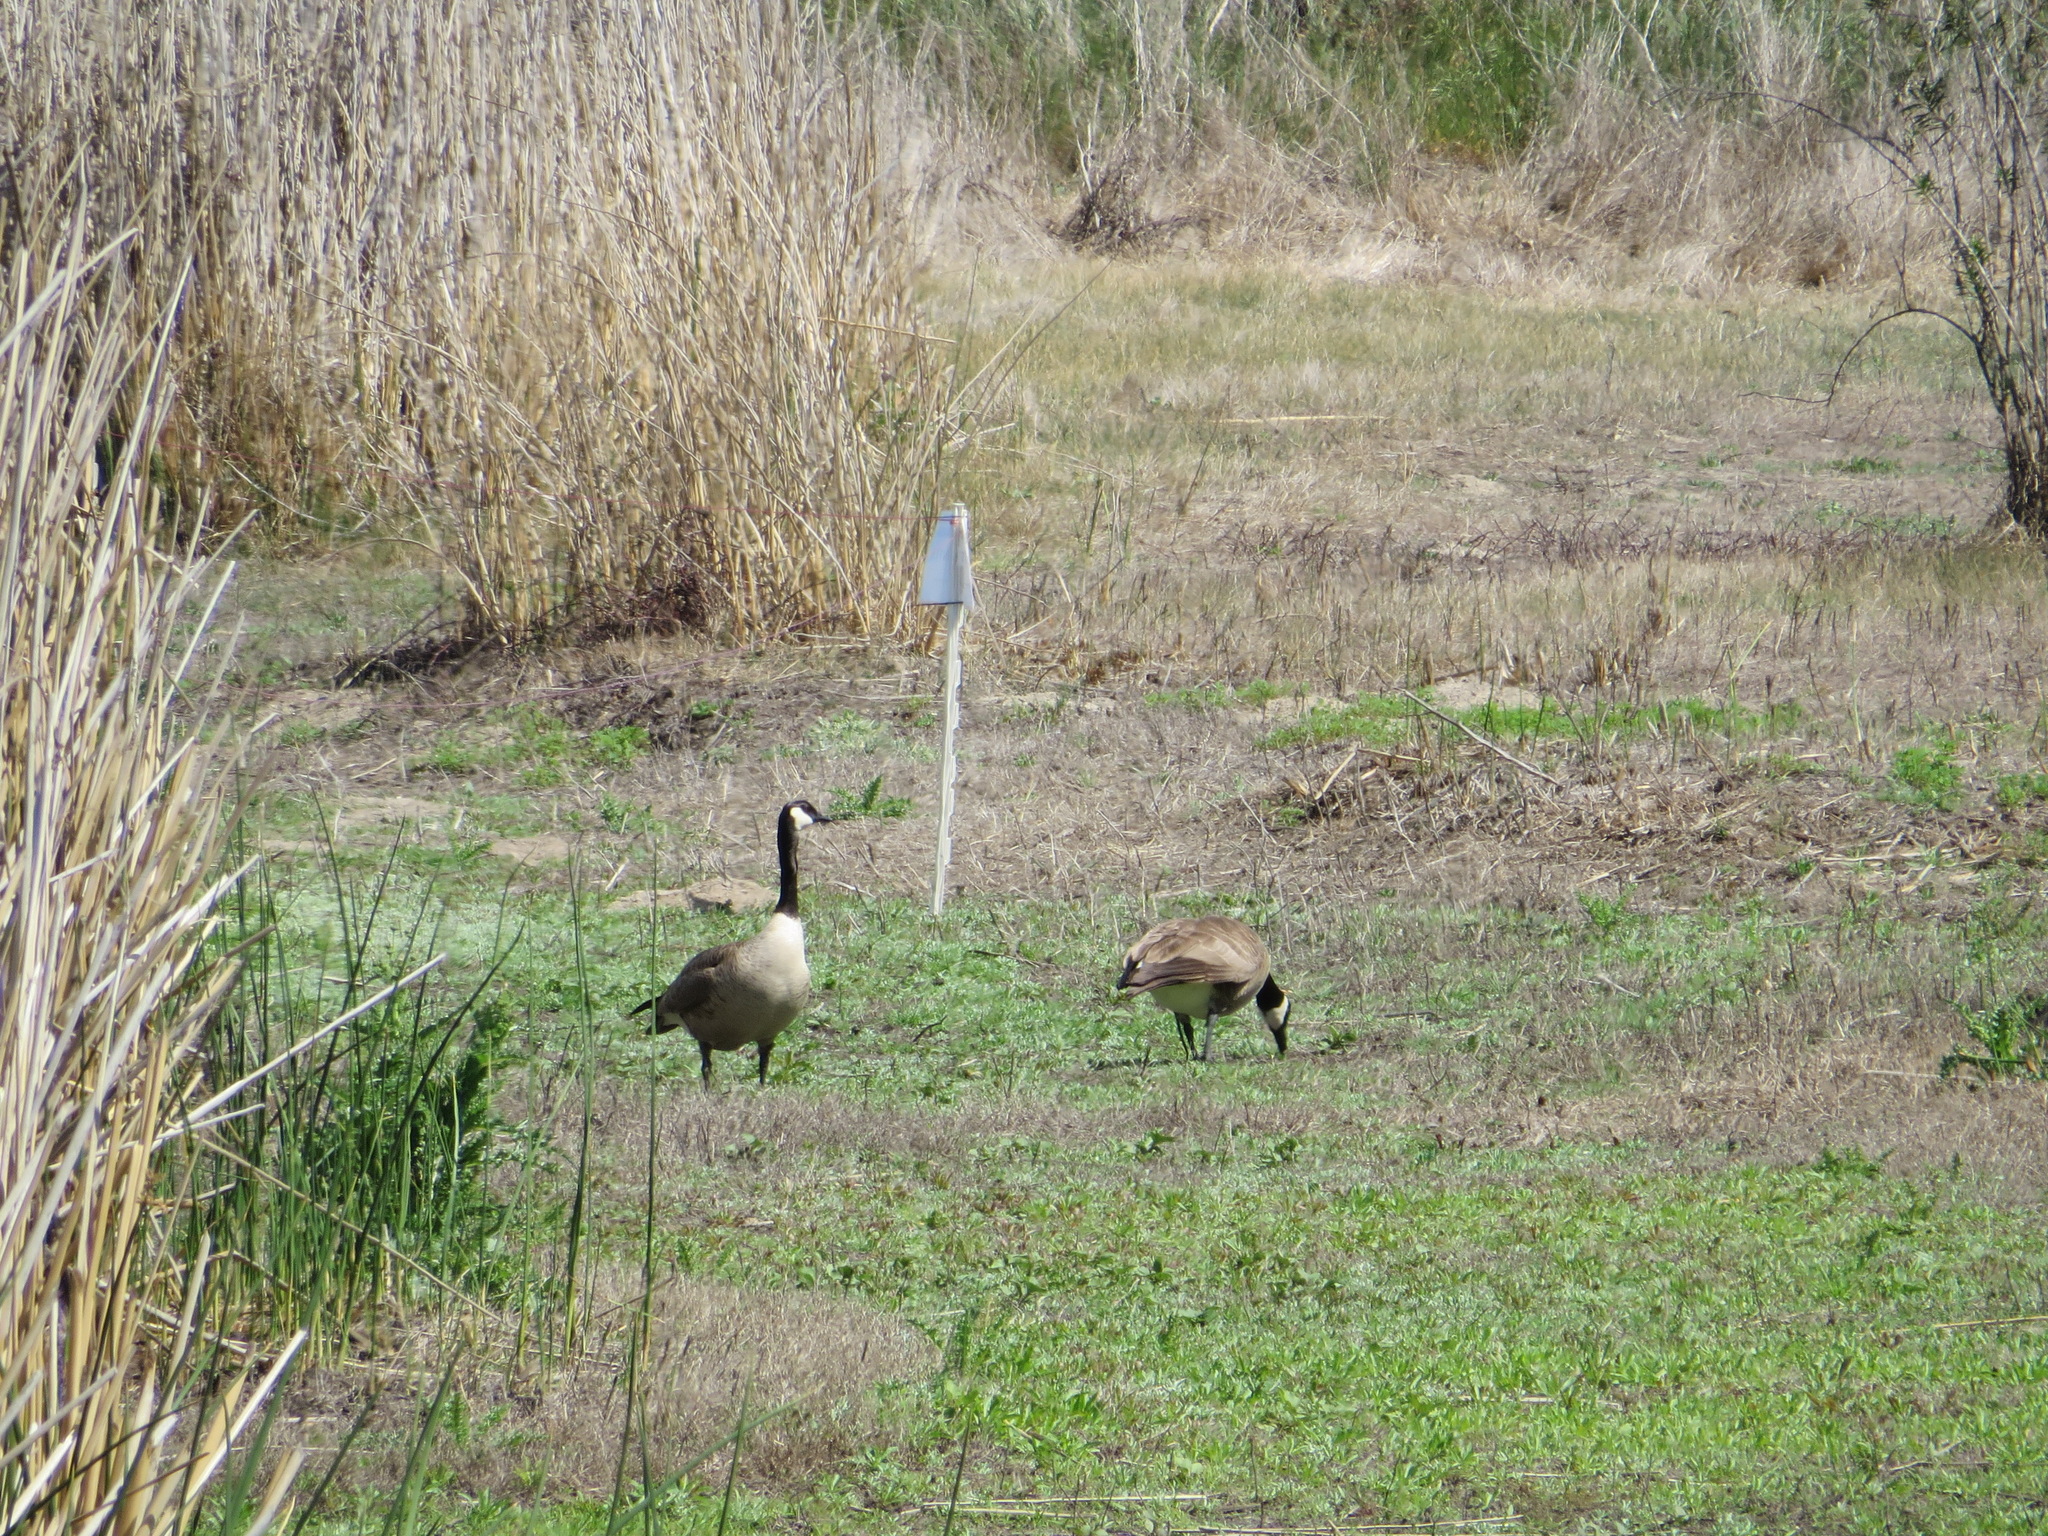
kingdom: Animalia
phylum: Chordata
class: Aves
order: Anseriformes
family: Anatidae
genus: Branta
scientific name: Branta canadensis
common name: Canada goose
